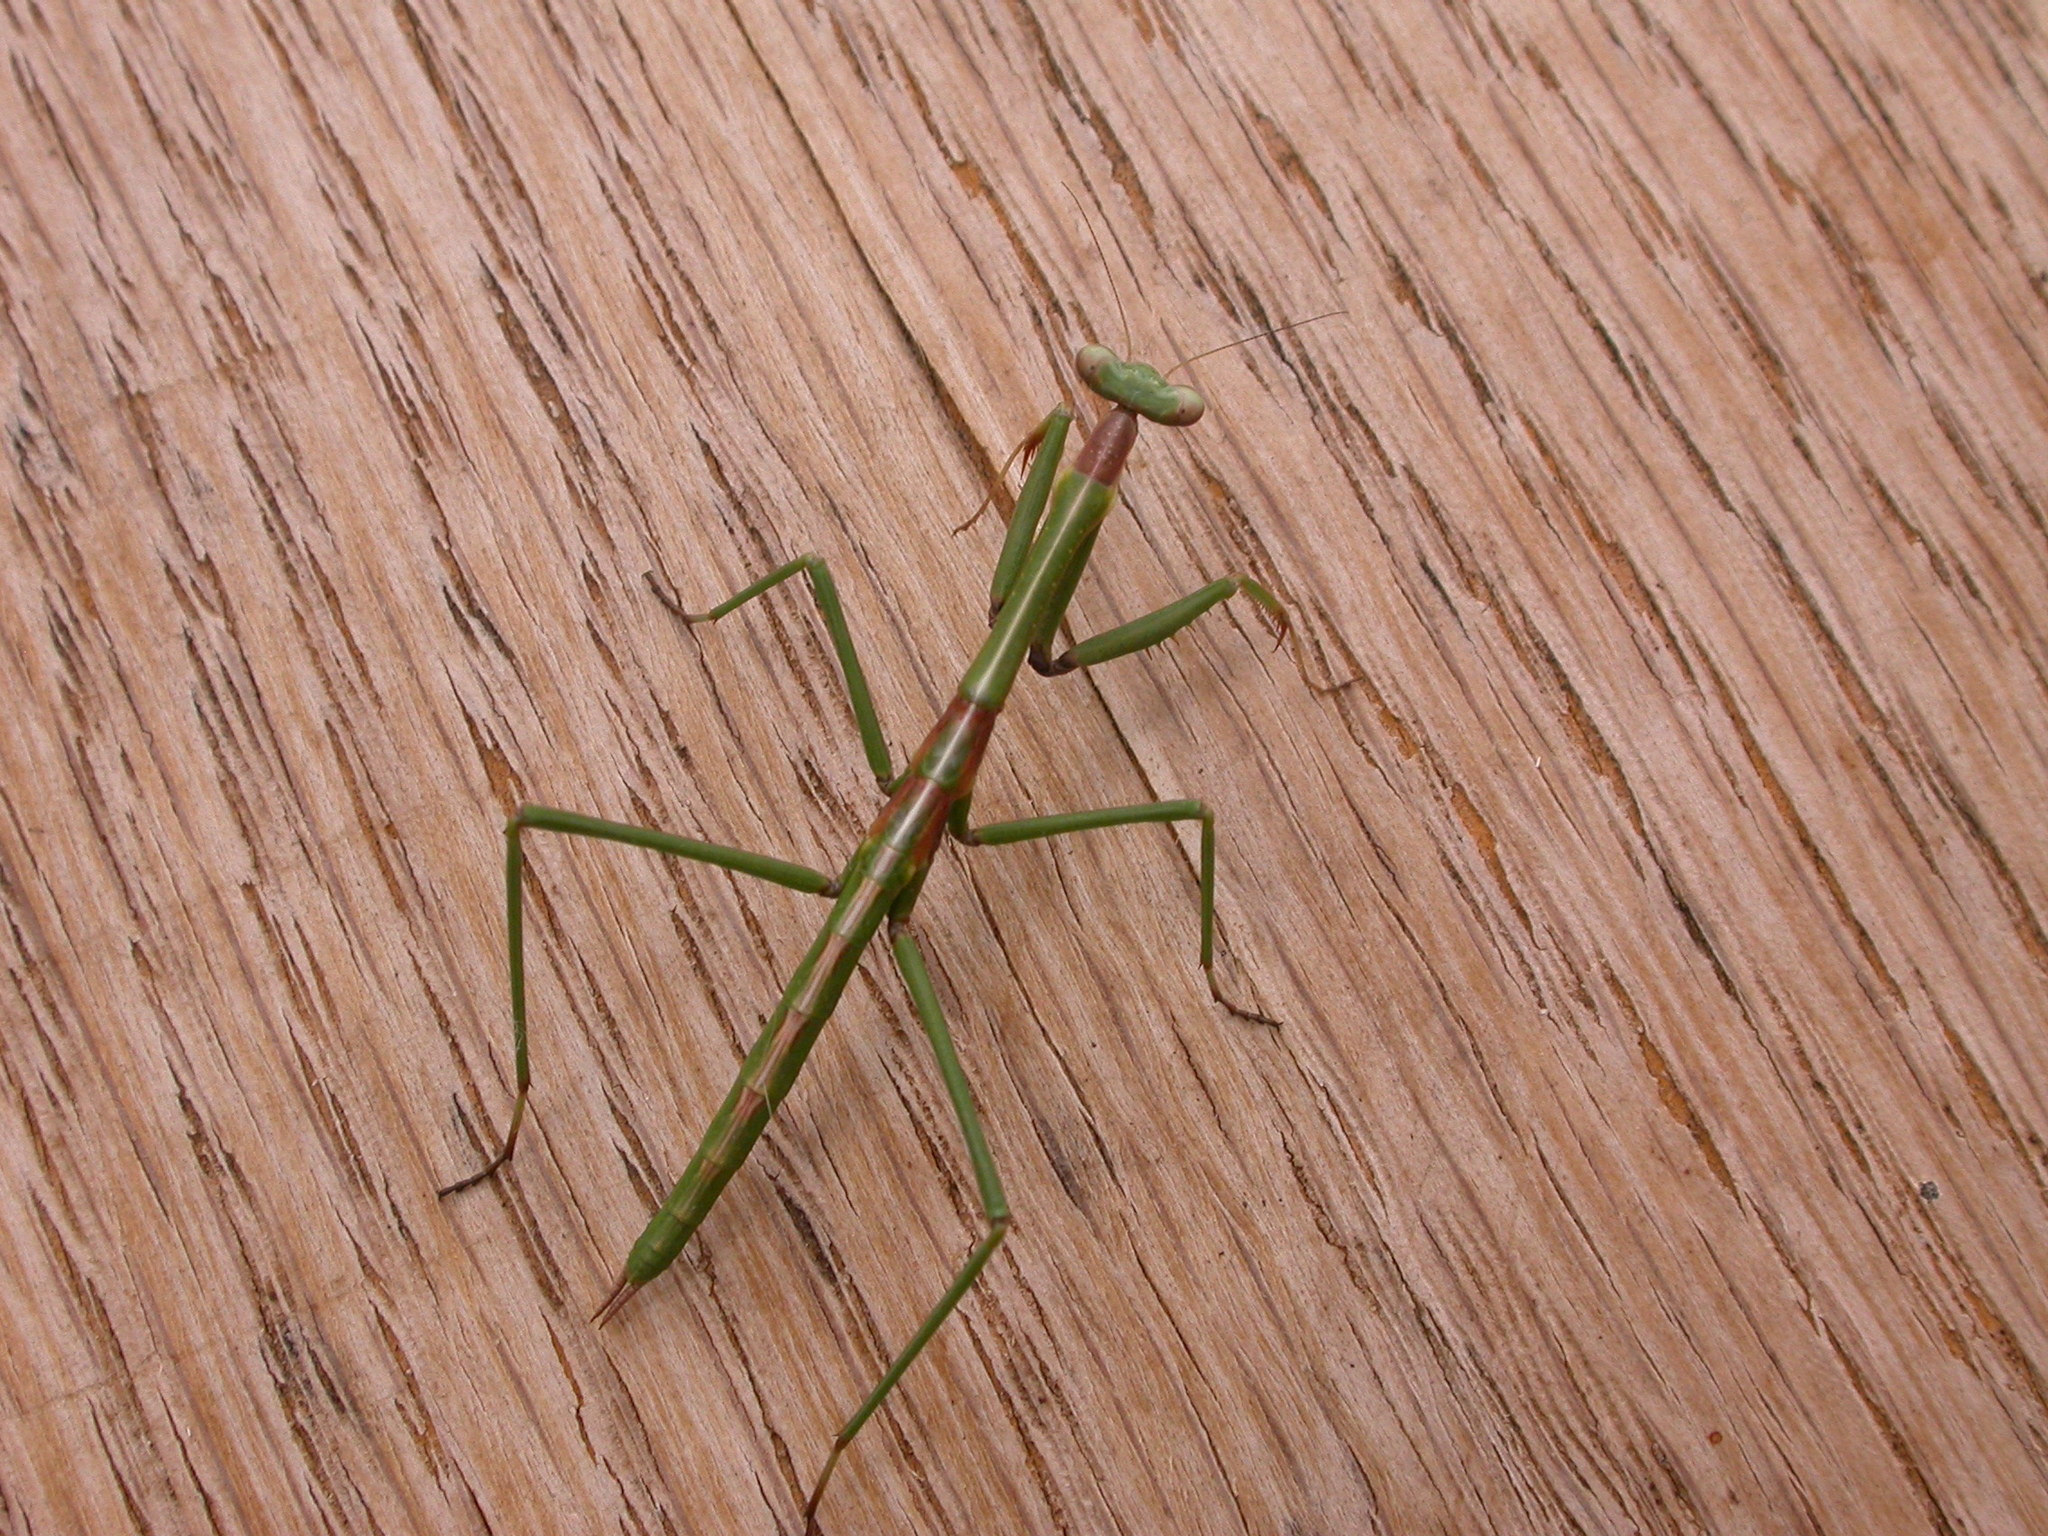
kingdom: Animalia
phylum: Arthropoda
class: Insecta
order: Mantodea
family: Mantidae
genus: Archimantis
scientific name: Archimantis latistyla
